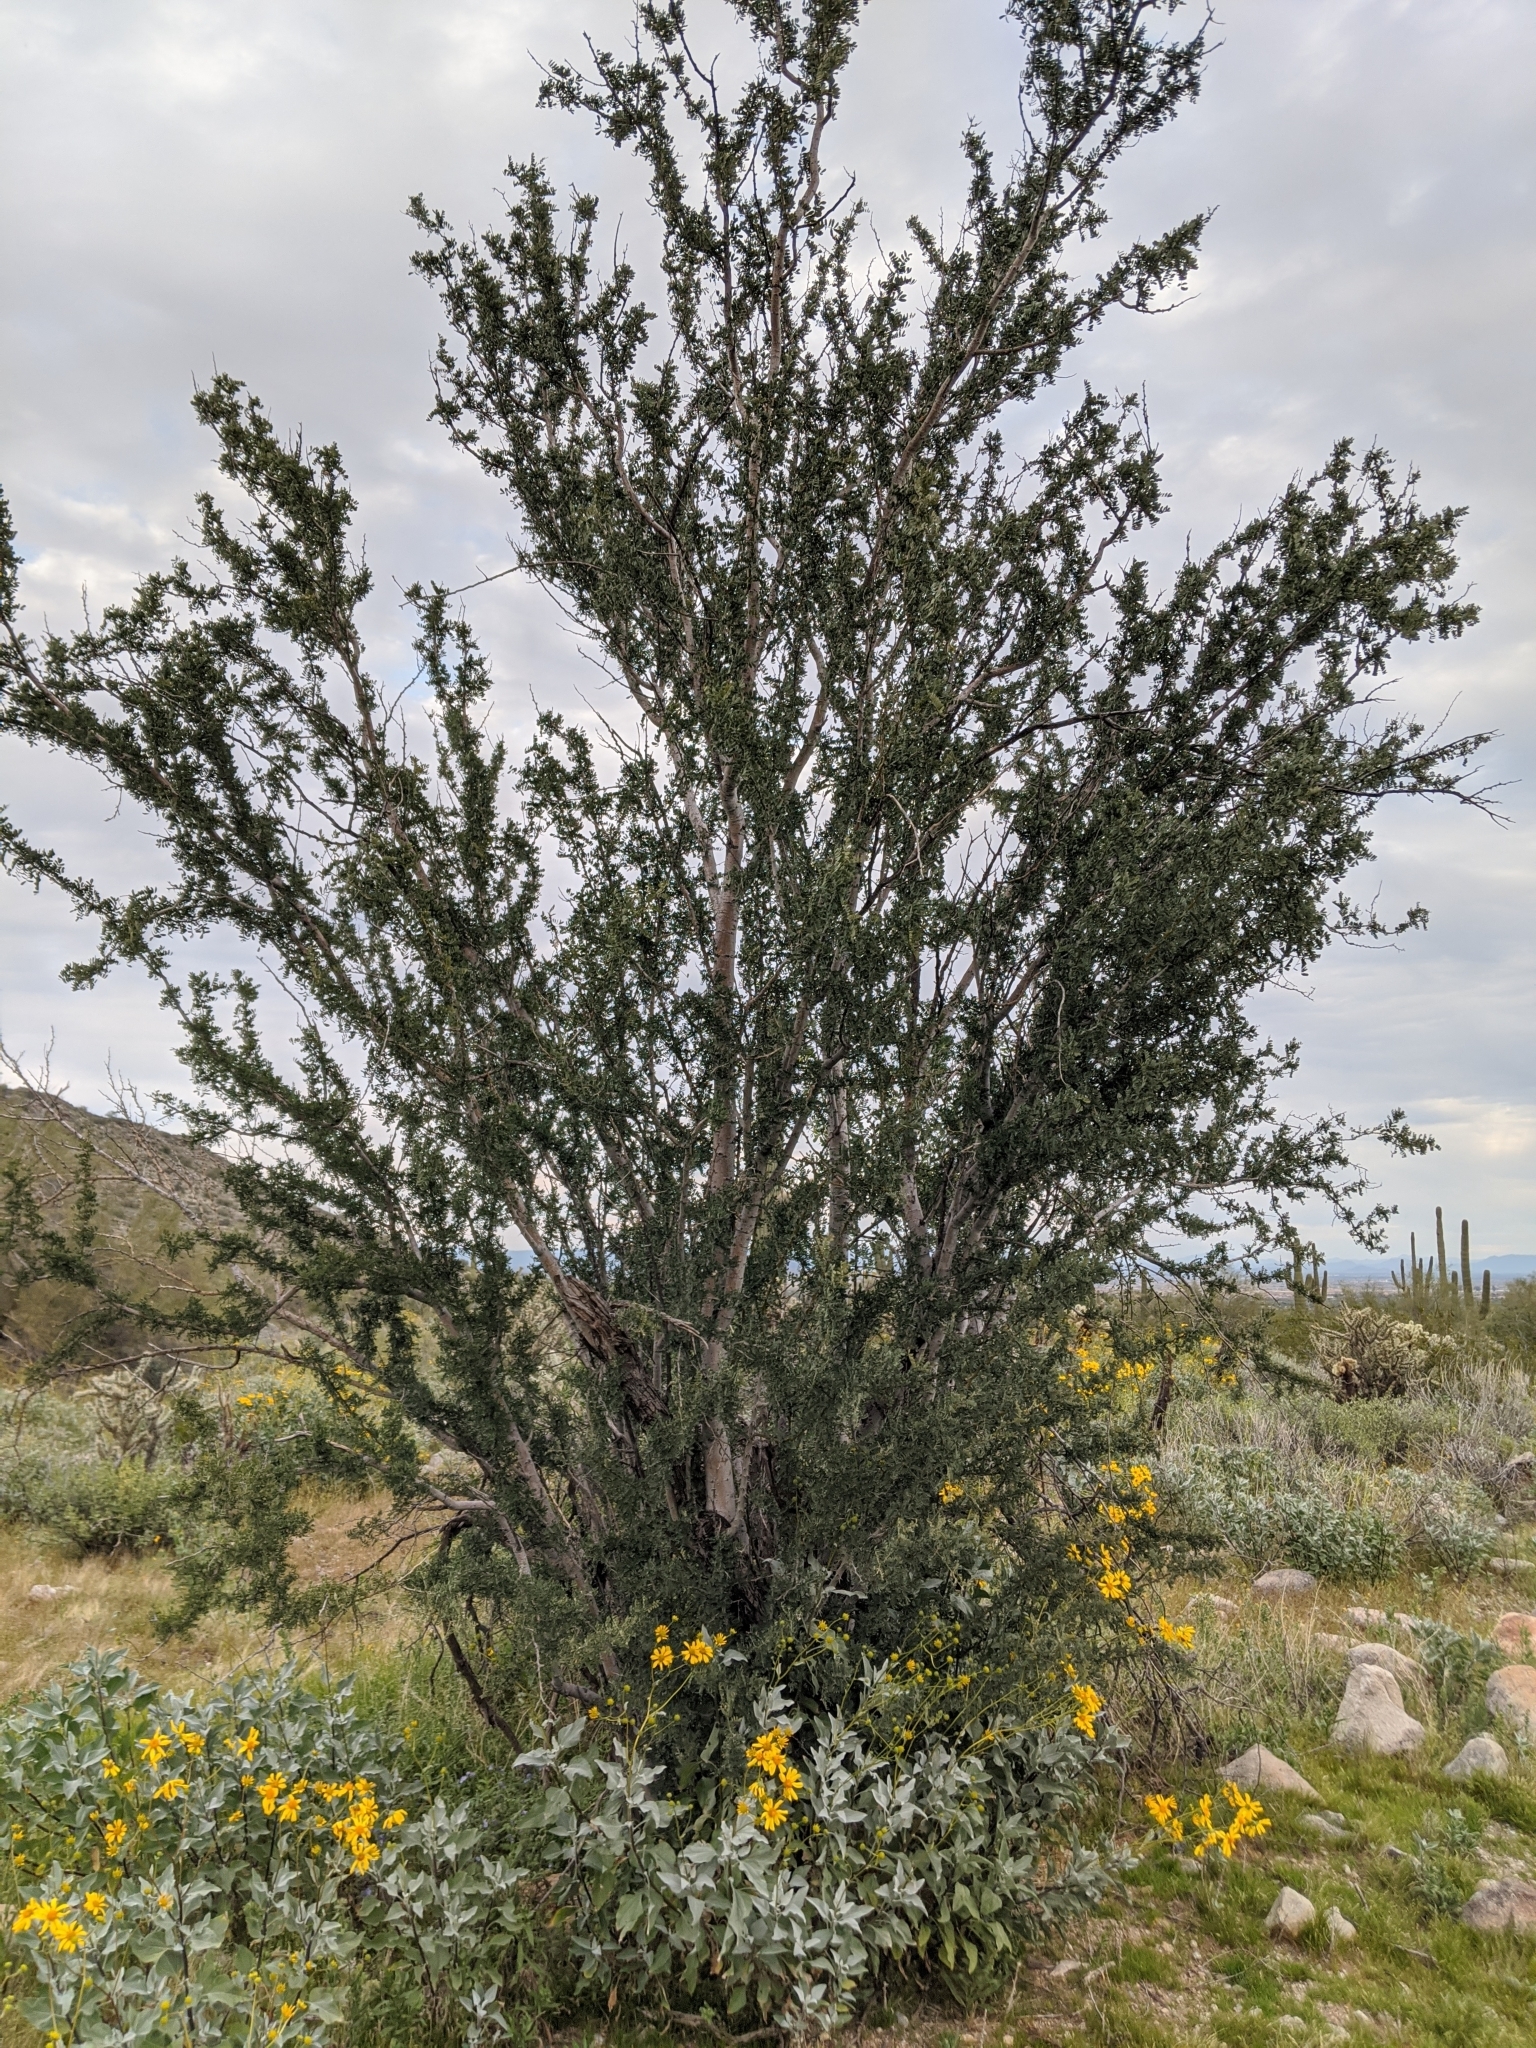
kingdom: Plantae
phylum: Tracheophyta
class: Magnoliopsida
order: Fabales
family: Fabaceae
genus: Olneya
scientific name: Olneya tesota
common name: Desert ironwood
